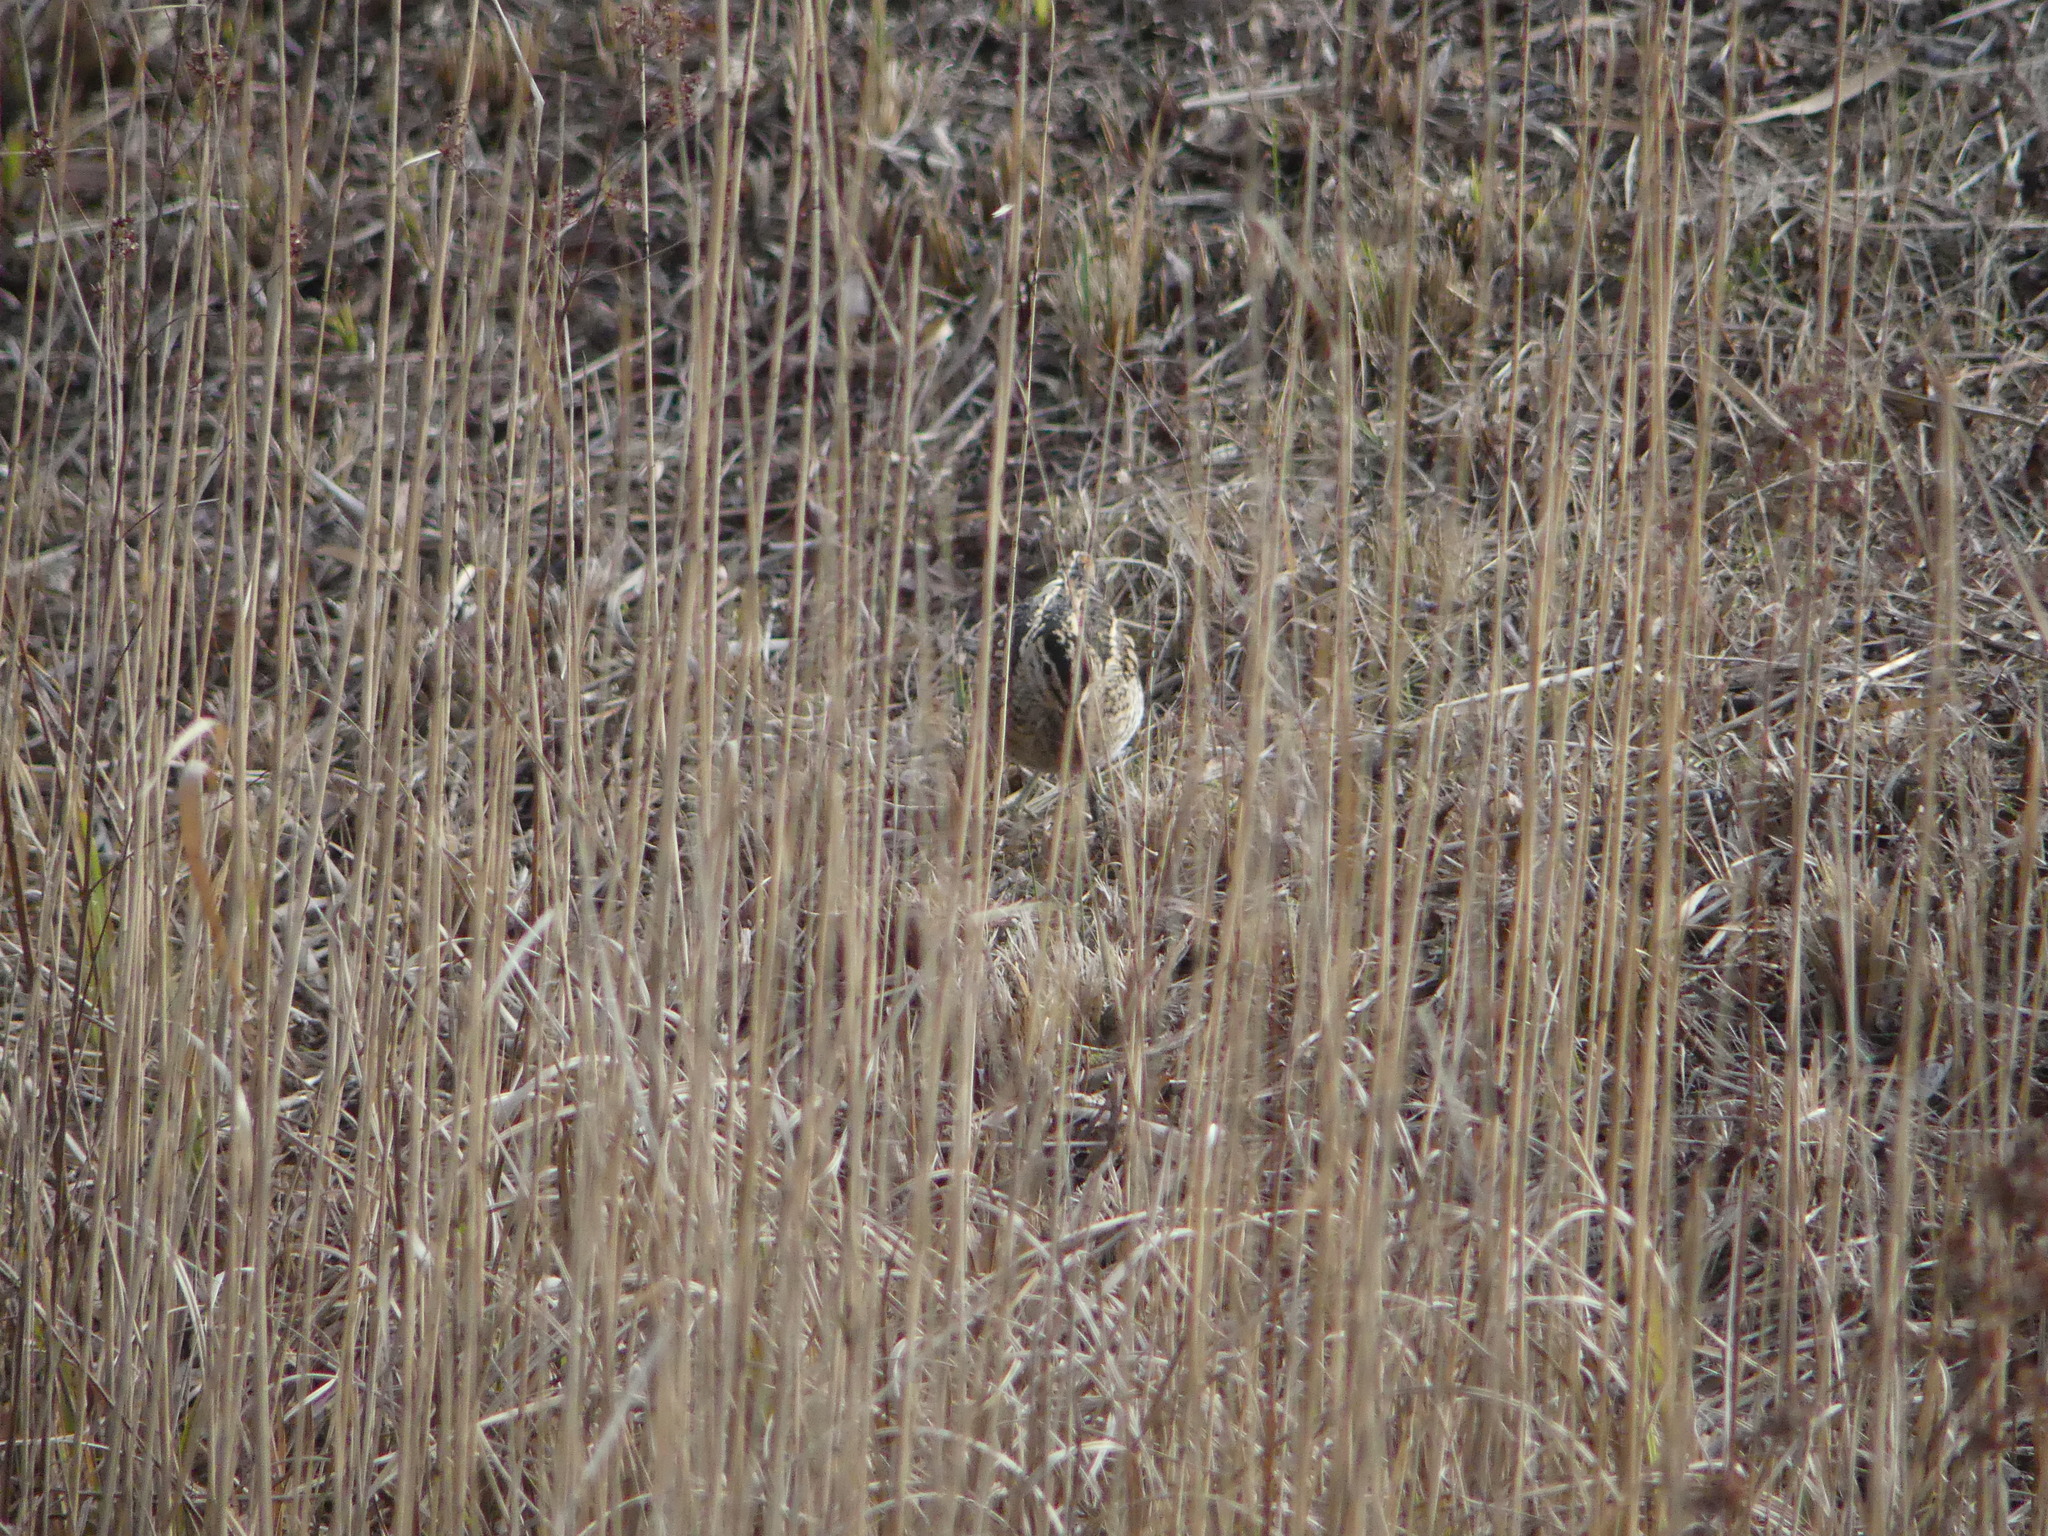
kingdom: Animalia
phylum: Chordata
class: Aves
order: Charadriiformes
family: Scolopacidae
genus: Gallinago
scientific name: Gallinago gallinago
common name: Common snipe
